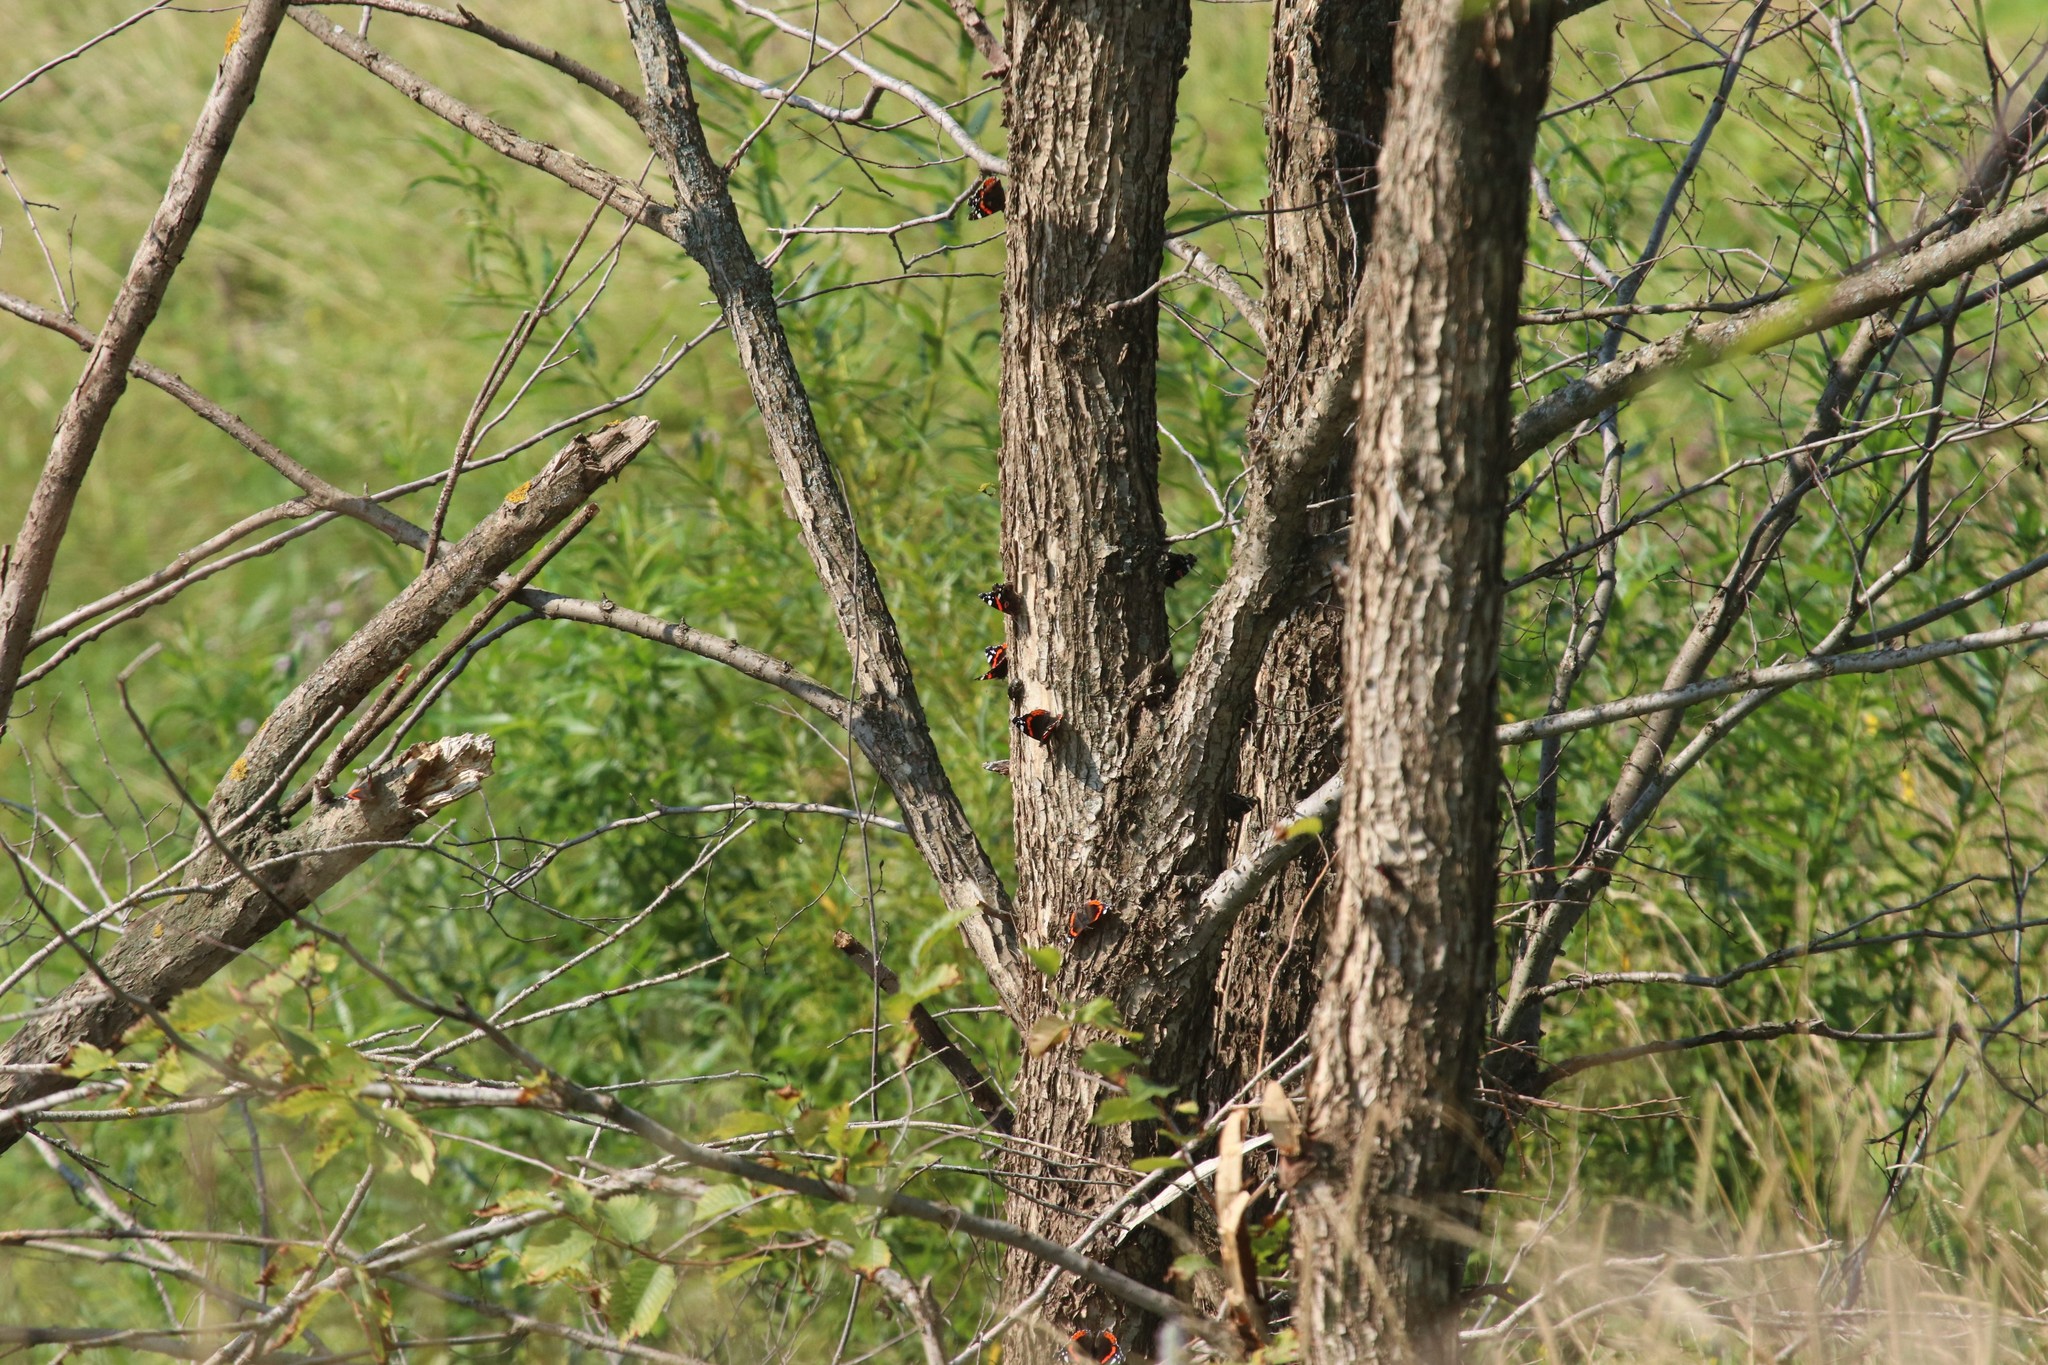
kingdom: Animalia
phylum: Arthropoda
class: Insecta
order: Lepidoptera
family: Nymphalidae
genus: Vanessa
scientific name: Vanessa atalanta
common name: Red admiral
